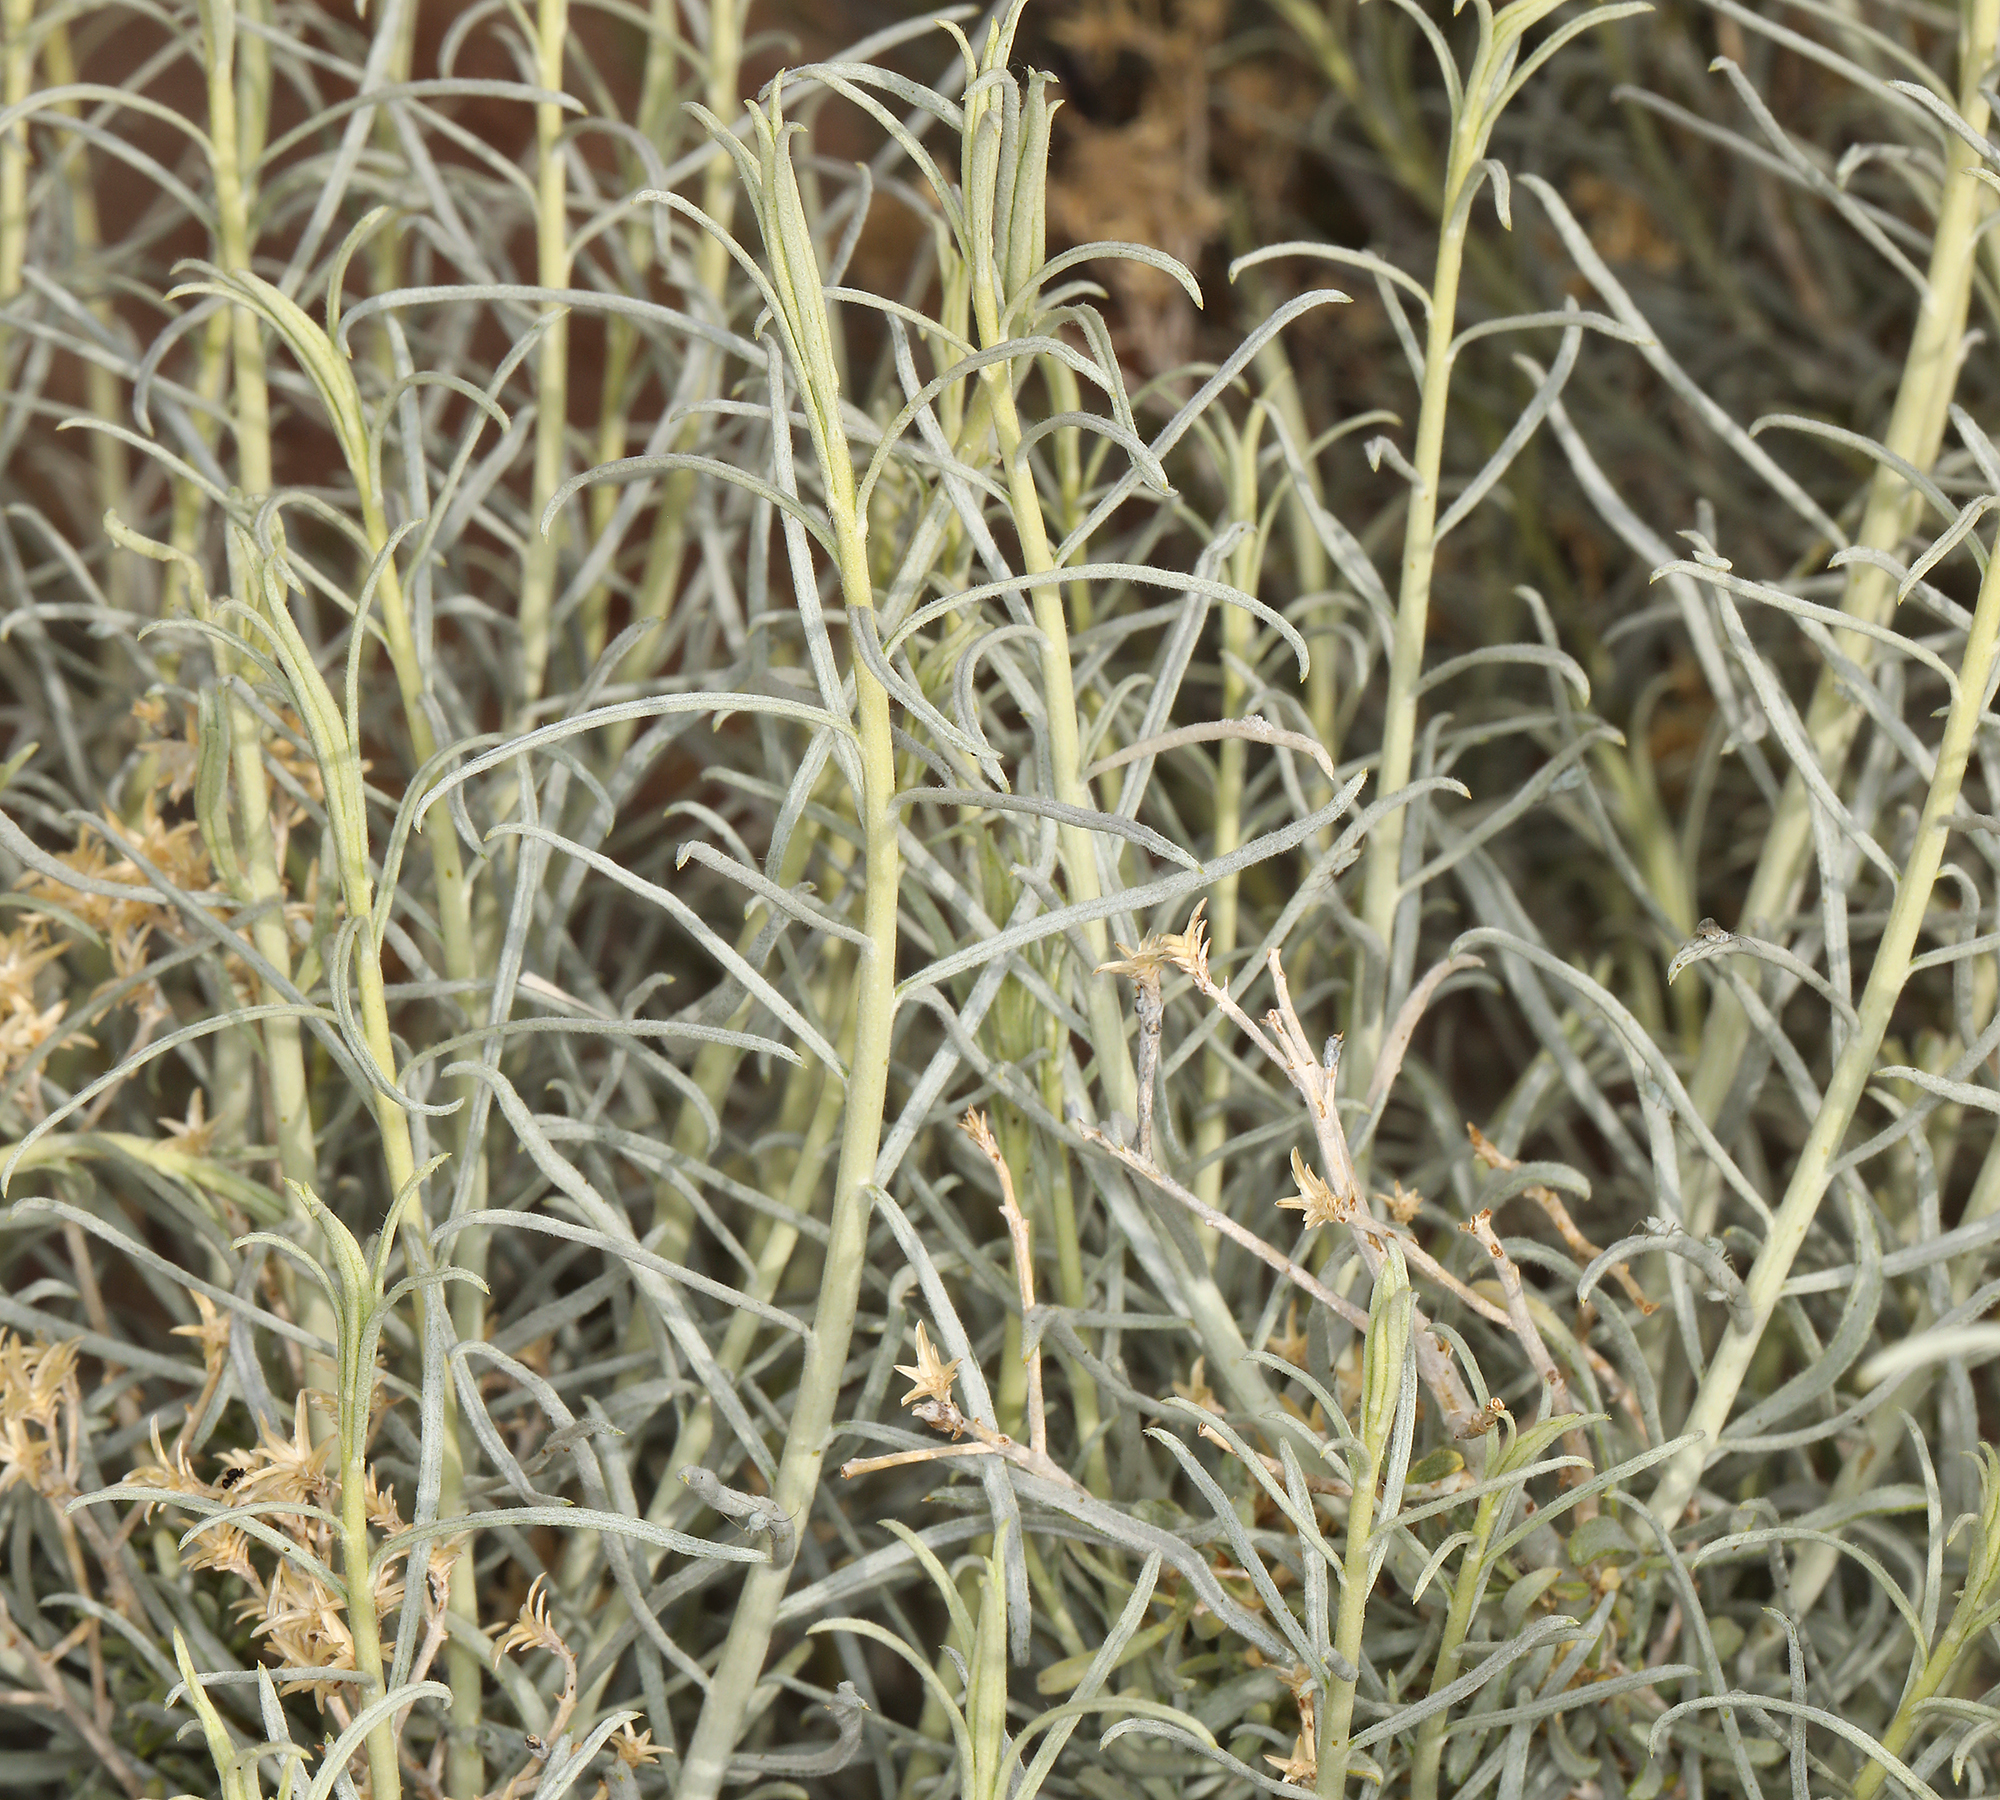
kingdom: Plantae
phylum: Tracheophyta
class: Magnoliopsida
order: Asterales
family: Asteraceae
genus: Ericameria
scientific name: Ericameria nauseosa
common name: Rubber rabbitbrush
